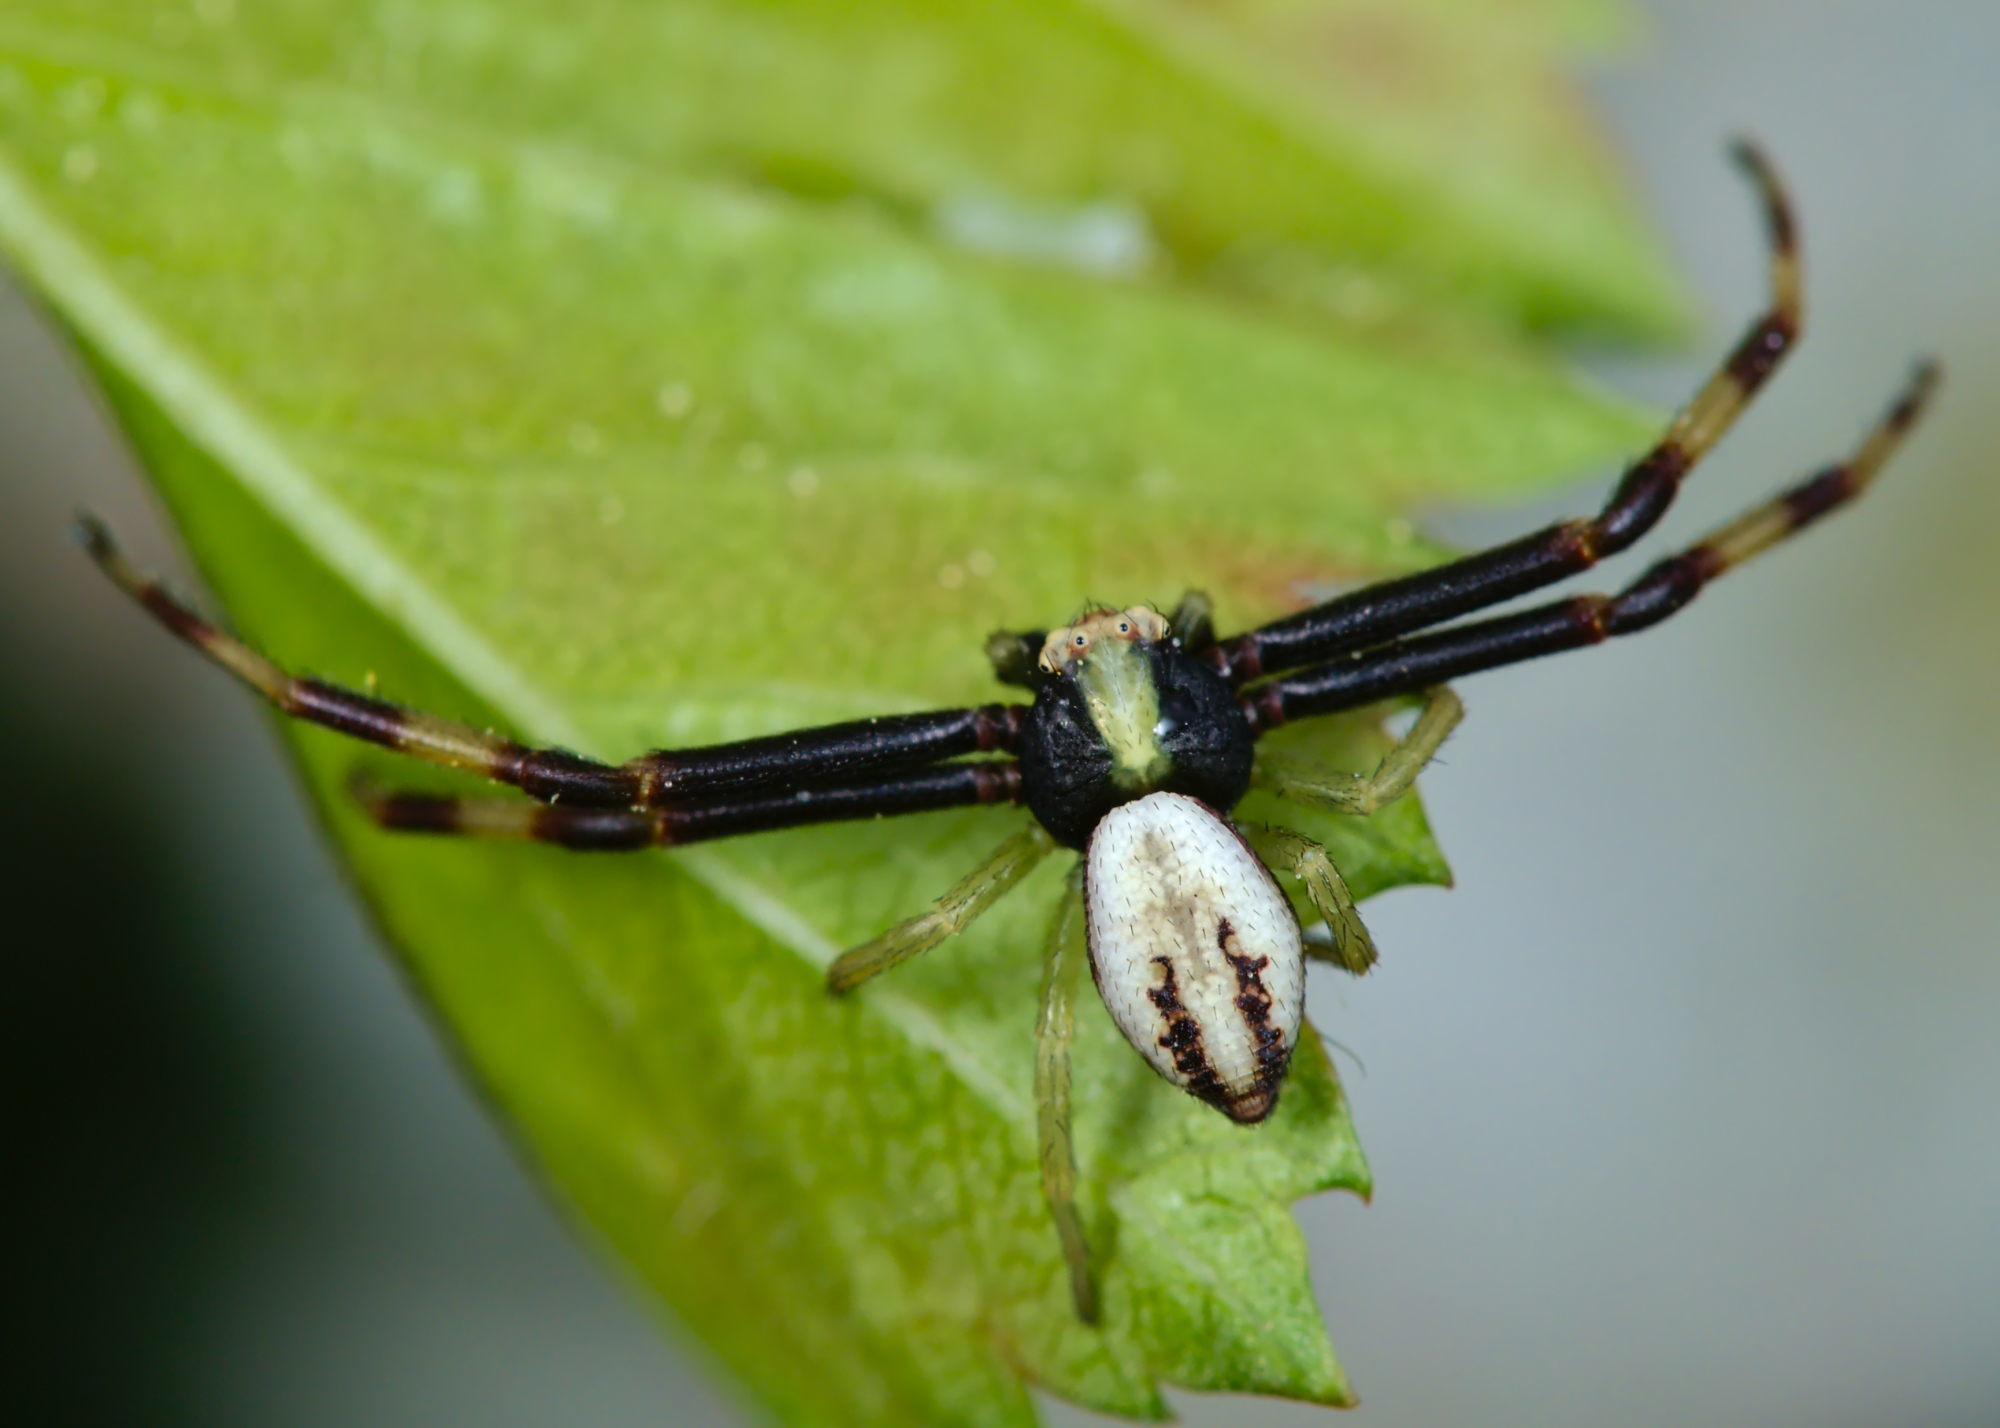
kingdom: Animalia
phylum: Arthropoda
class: Arachnida
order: Araneae
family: Thomisidae
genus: Misumena
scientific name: Misumena vatia
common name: Goldenrod crab spider
